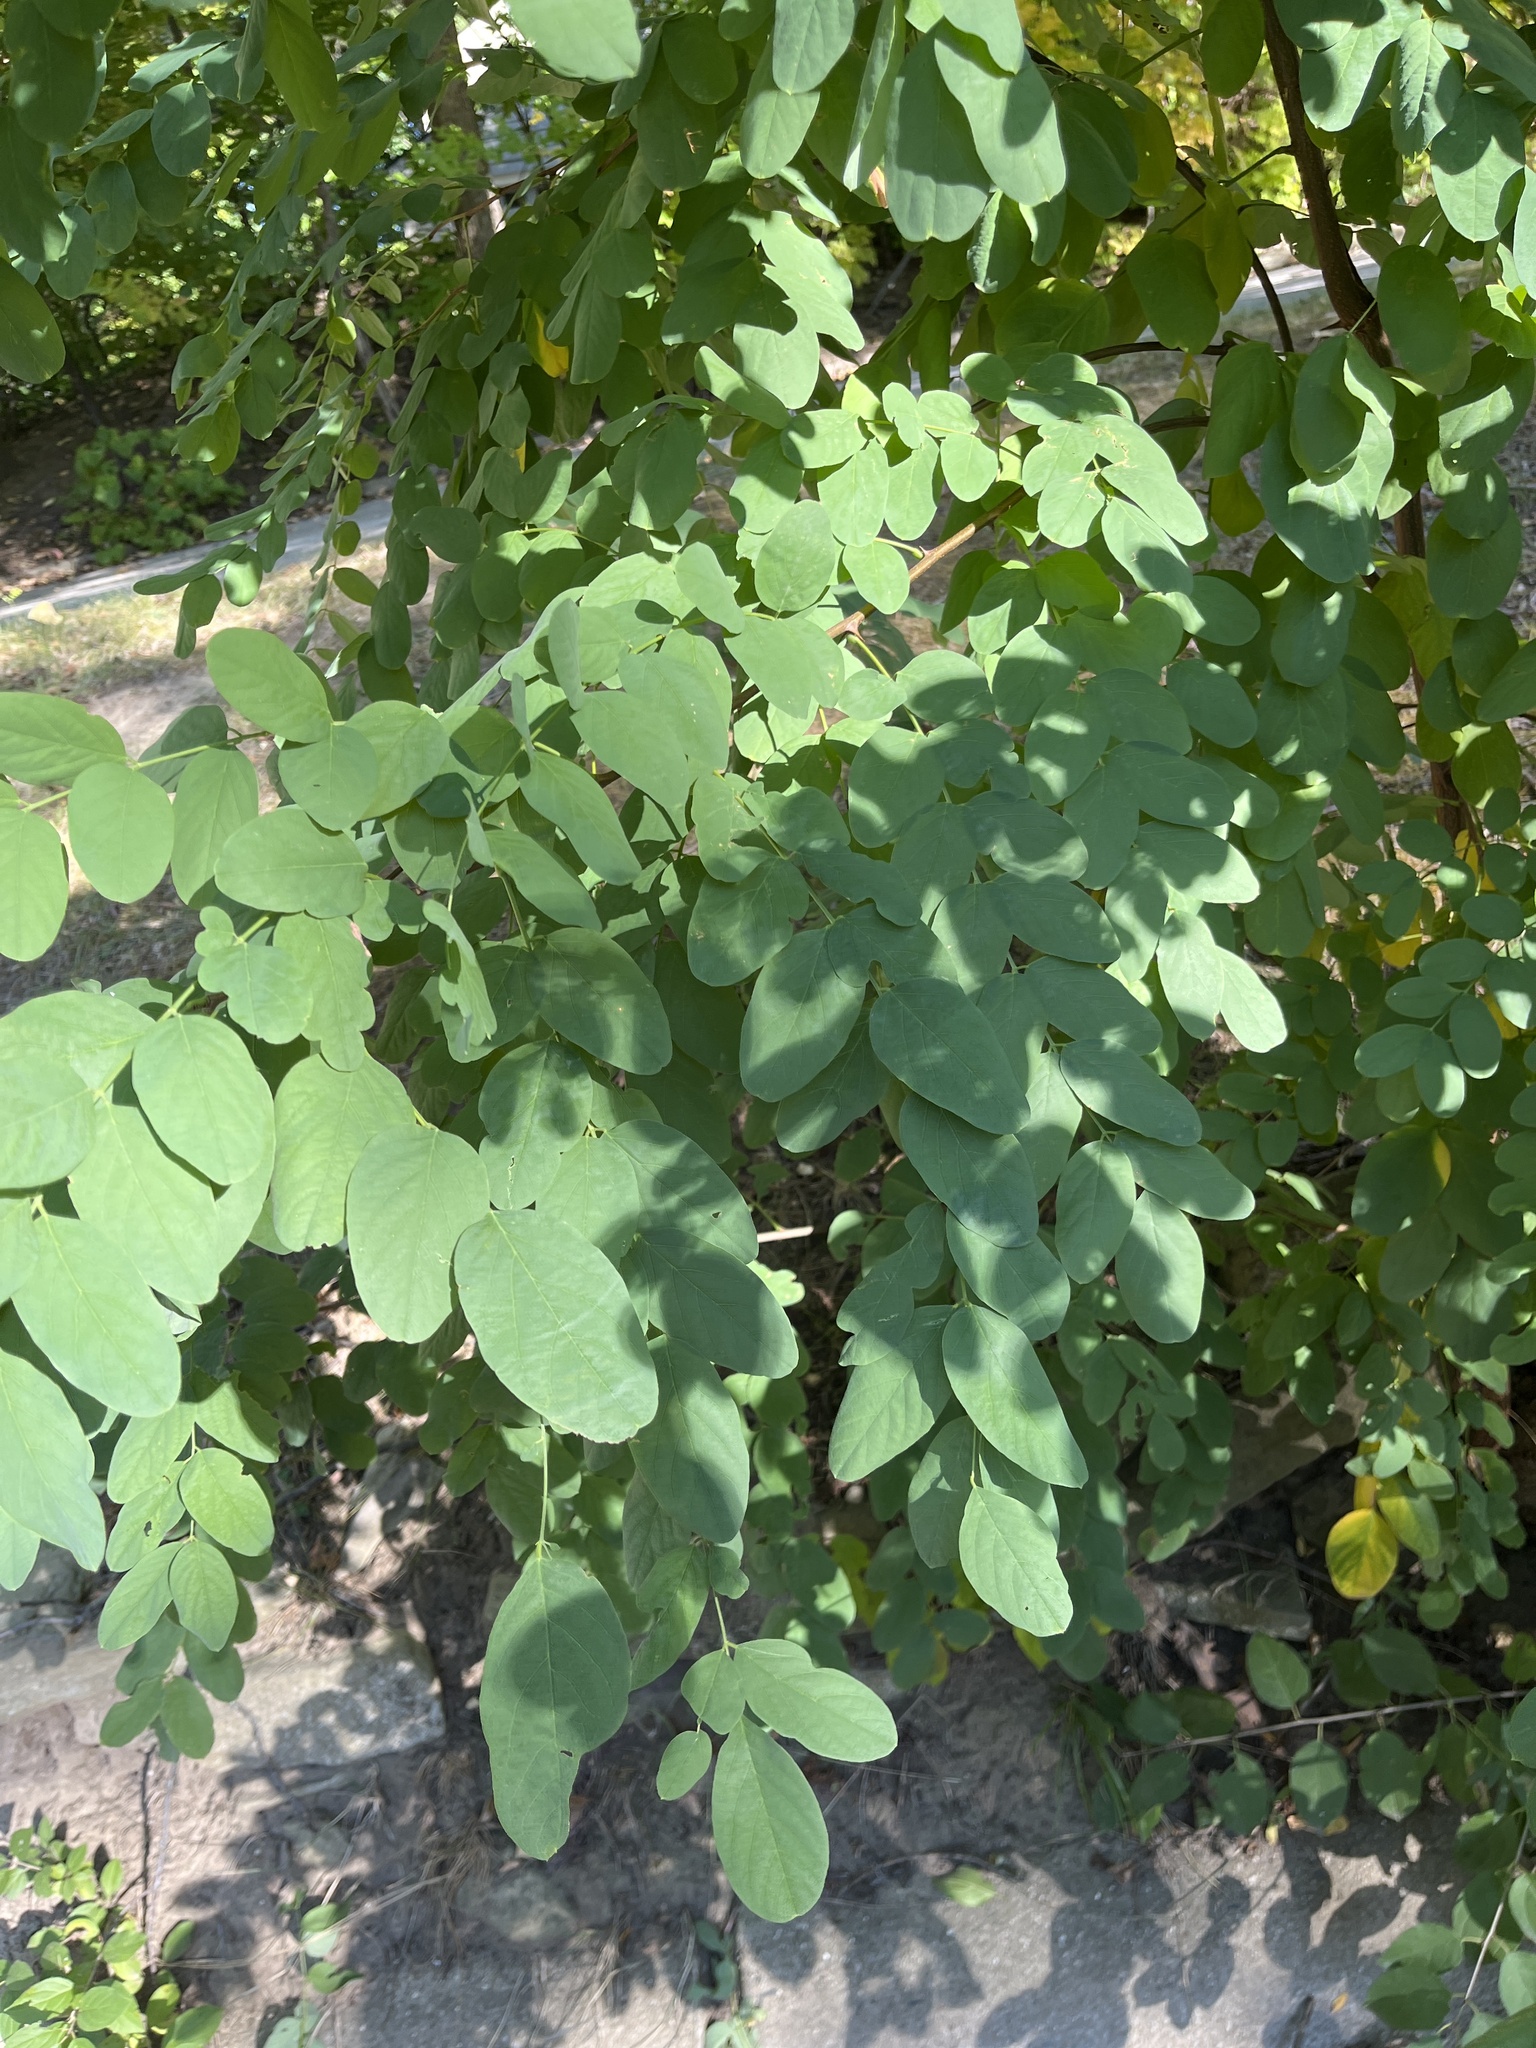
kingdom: Plantae
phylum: Tracheophyta
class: Magnoliopsida
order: Fabales
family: Fabaceae
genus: Robinia
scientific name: Robinia pseudoacacia
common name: Black locust
